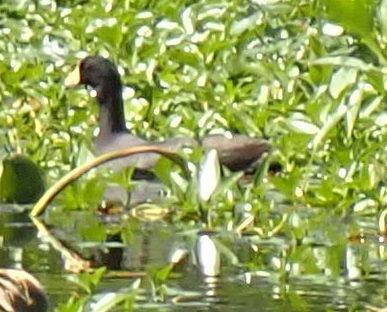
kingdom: Animalia
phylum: Chordata
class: Aves
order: Gruiformes
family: Rallidae
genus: Fulica
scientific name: Fulica americana
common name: American coot
